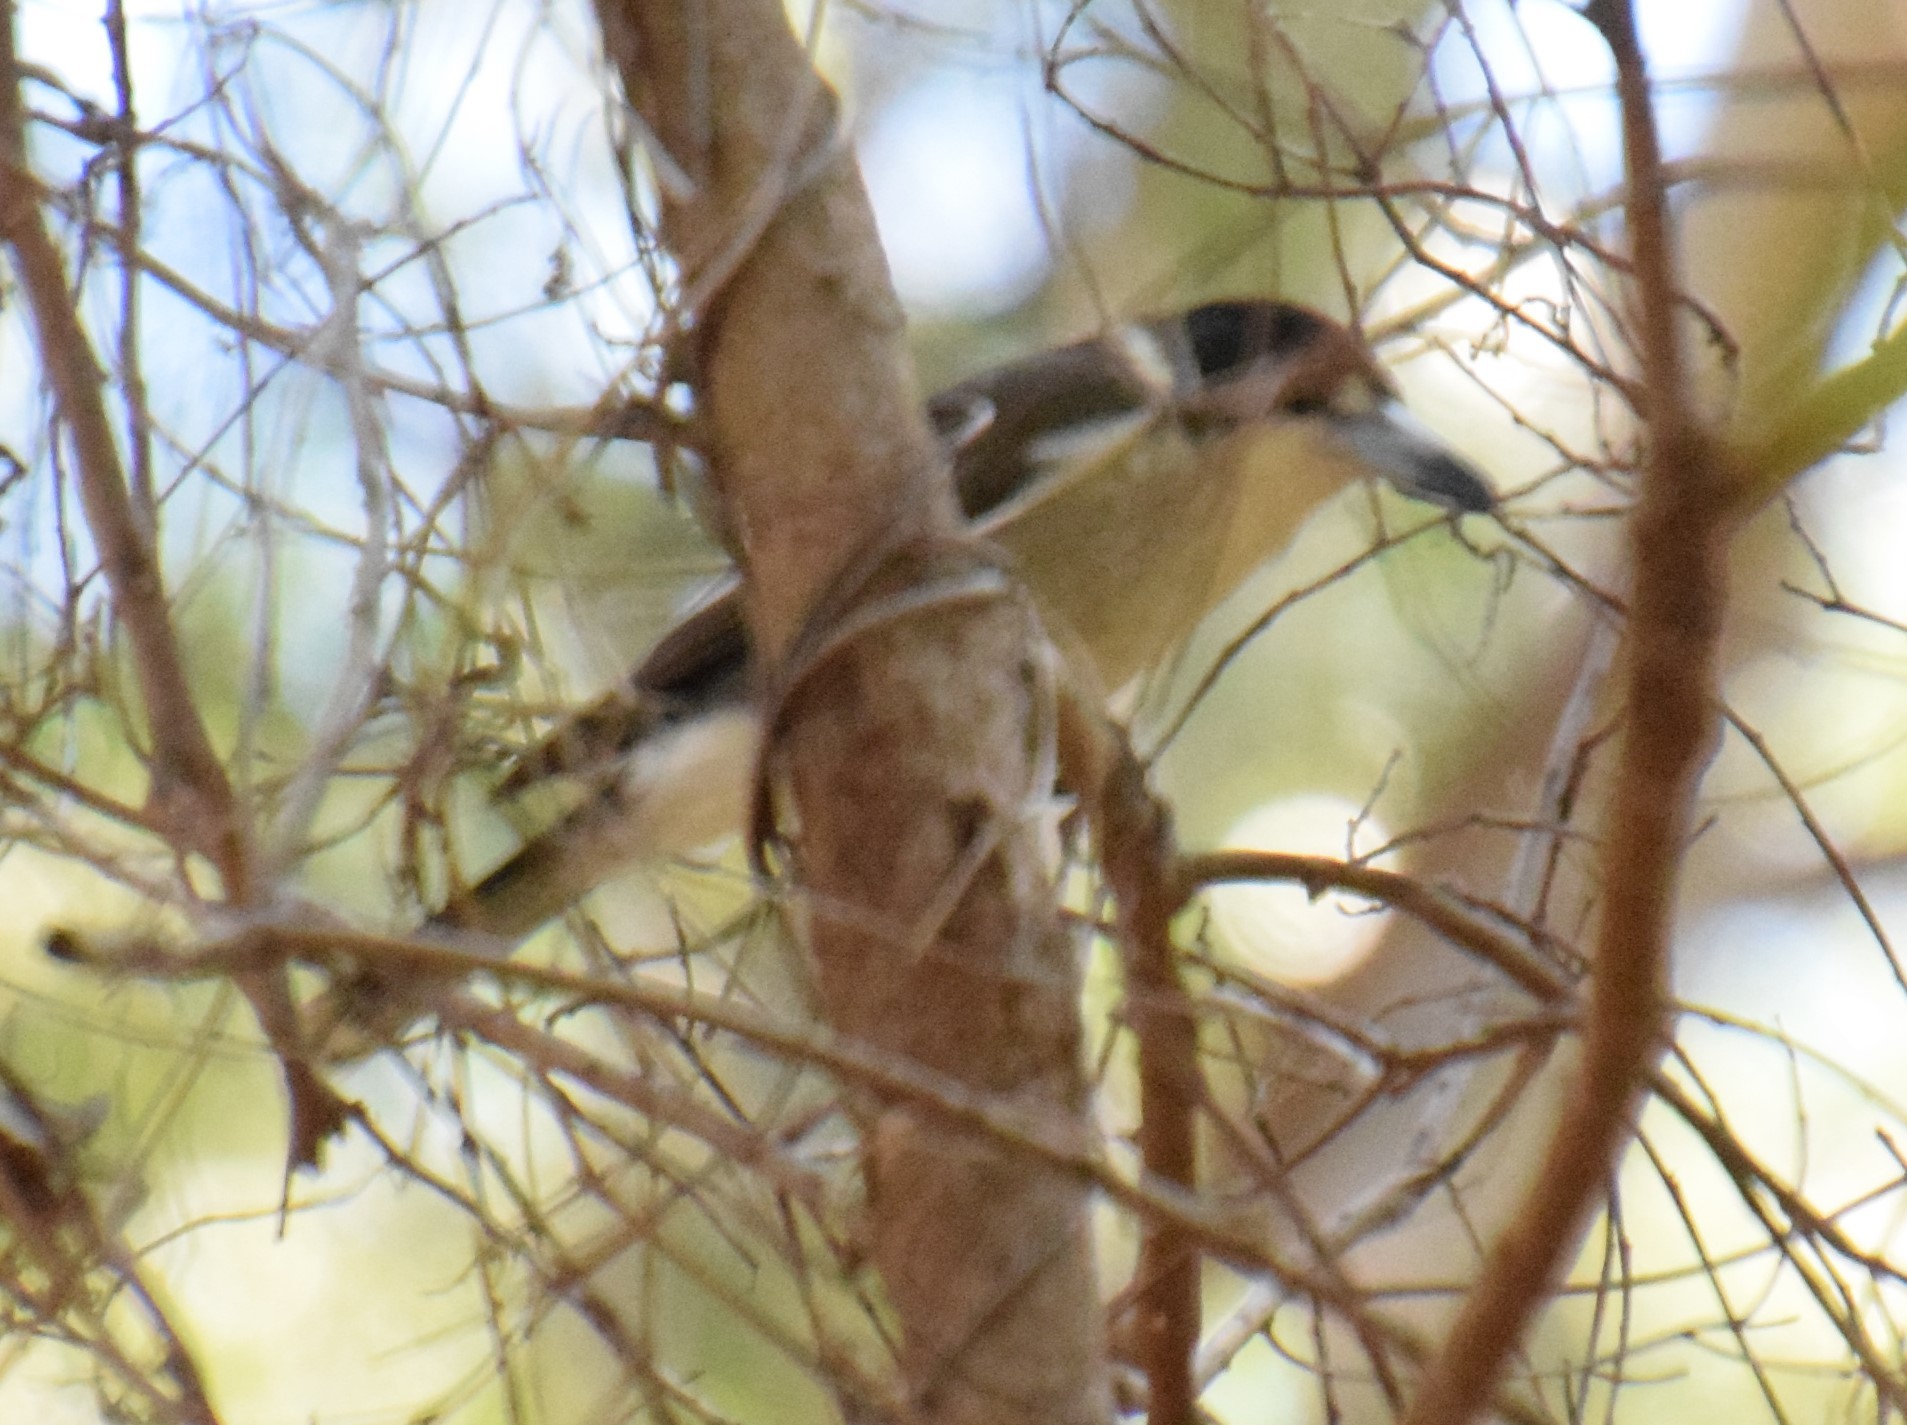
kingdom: Animalia
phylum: Chordata
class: Aves
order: Passeriformes
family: Cracticidae
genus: Cracticus
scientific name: Cracticus torquatus
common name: Grey butcherbird
